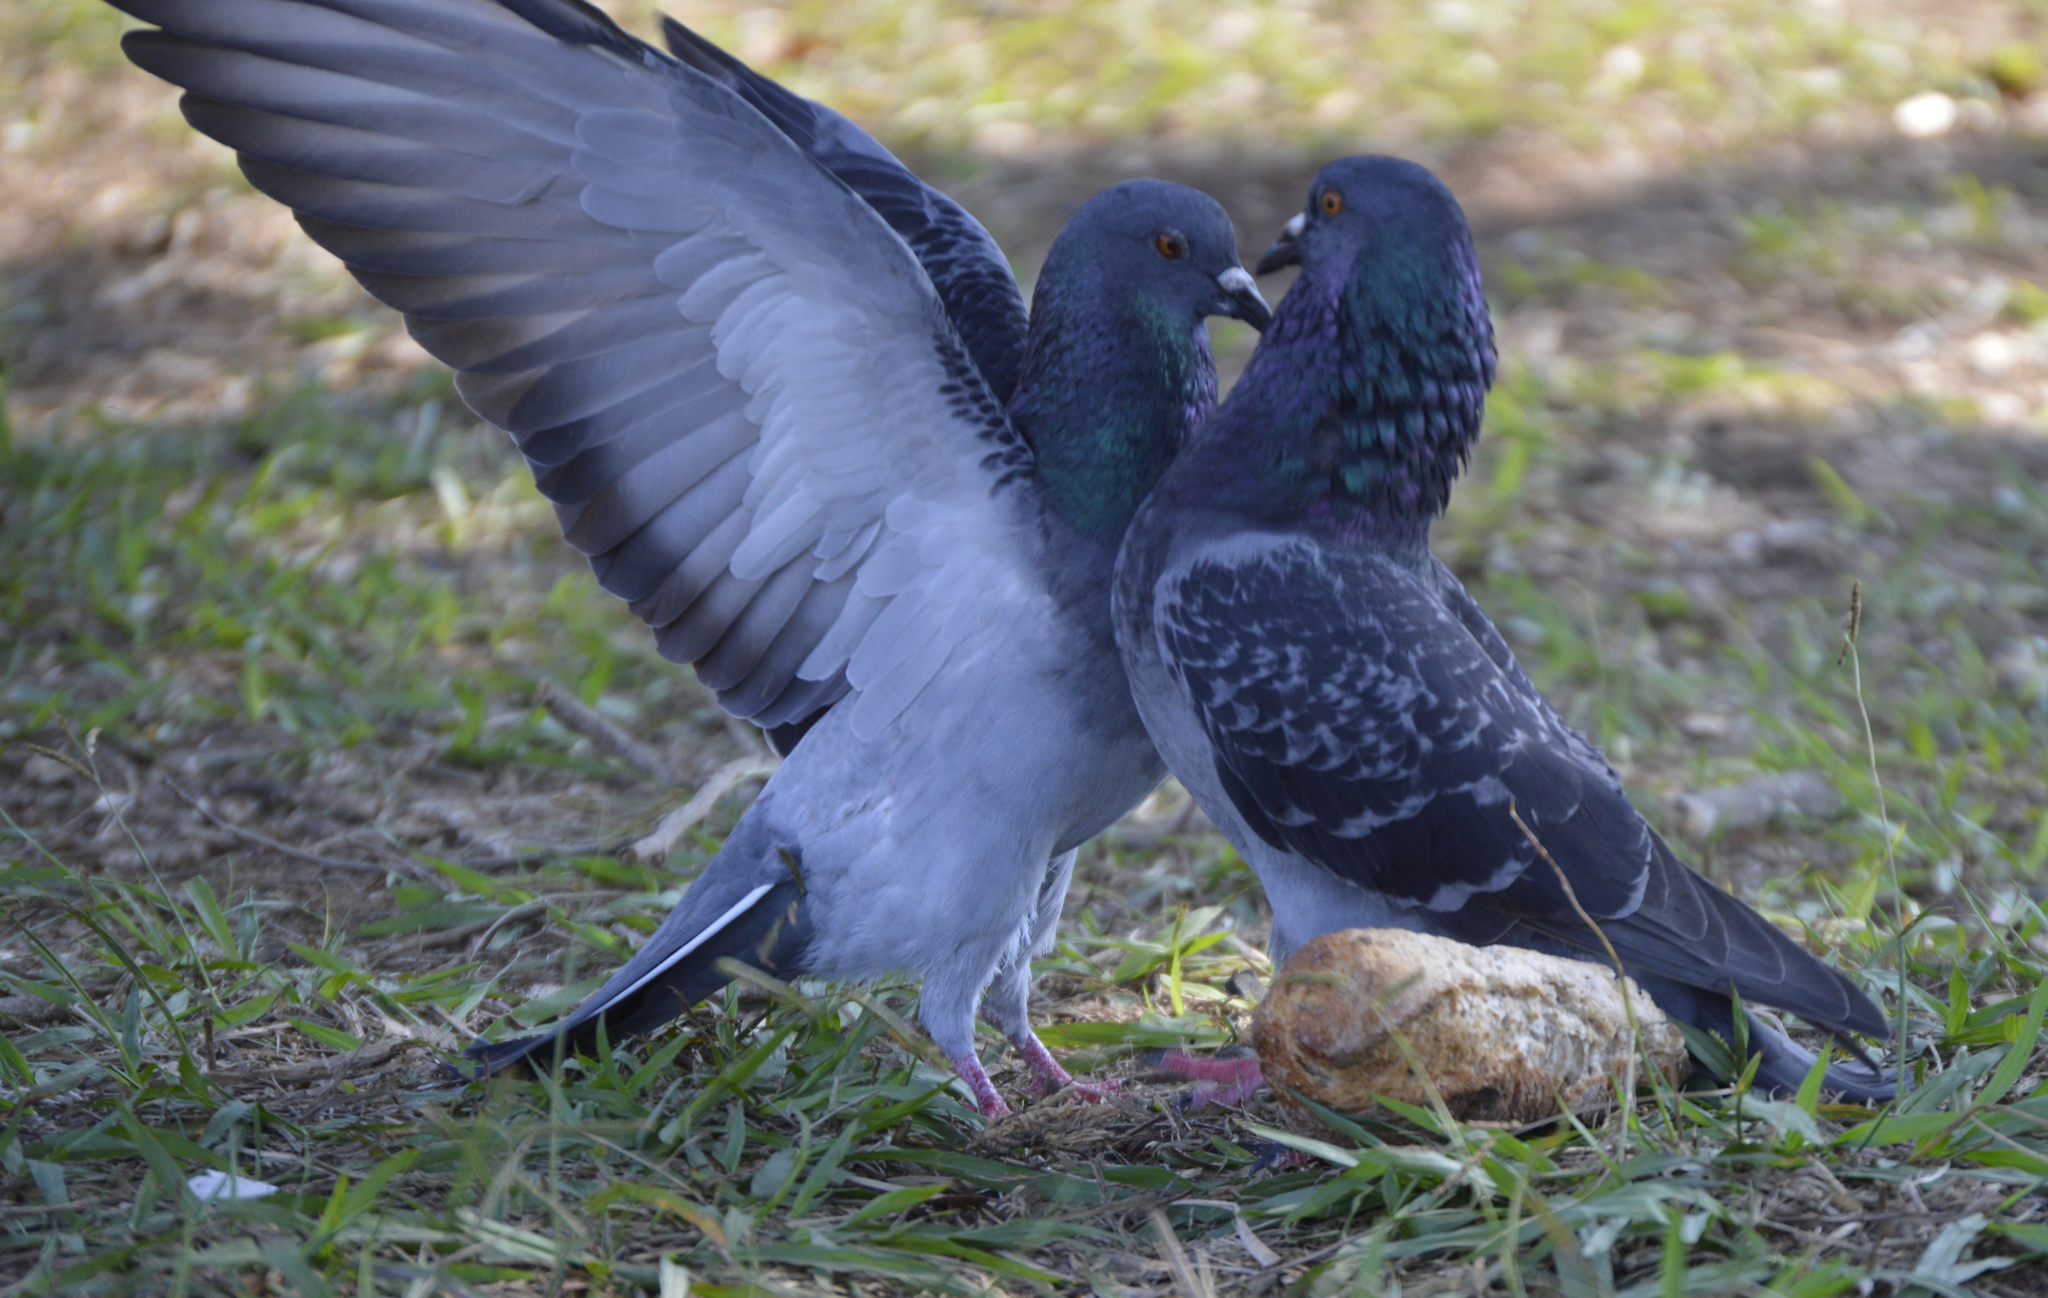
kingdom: Animalia
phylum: Chordata
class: Aves
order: Columbiformes
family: Columbidae
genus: Columba
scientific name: Columba livia
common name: Rock pigeon
